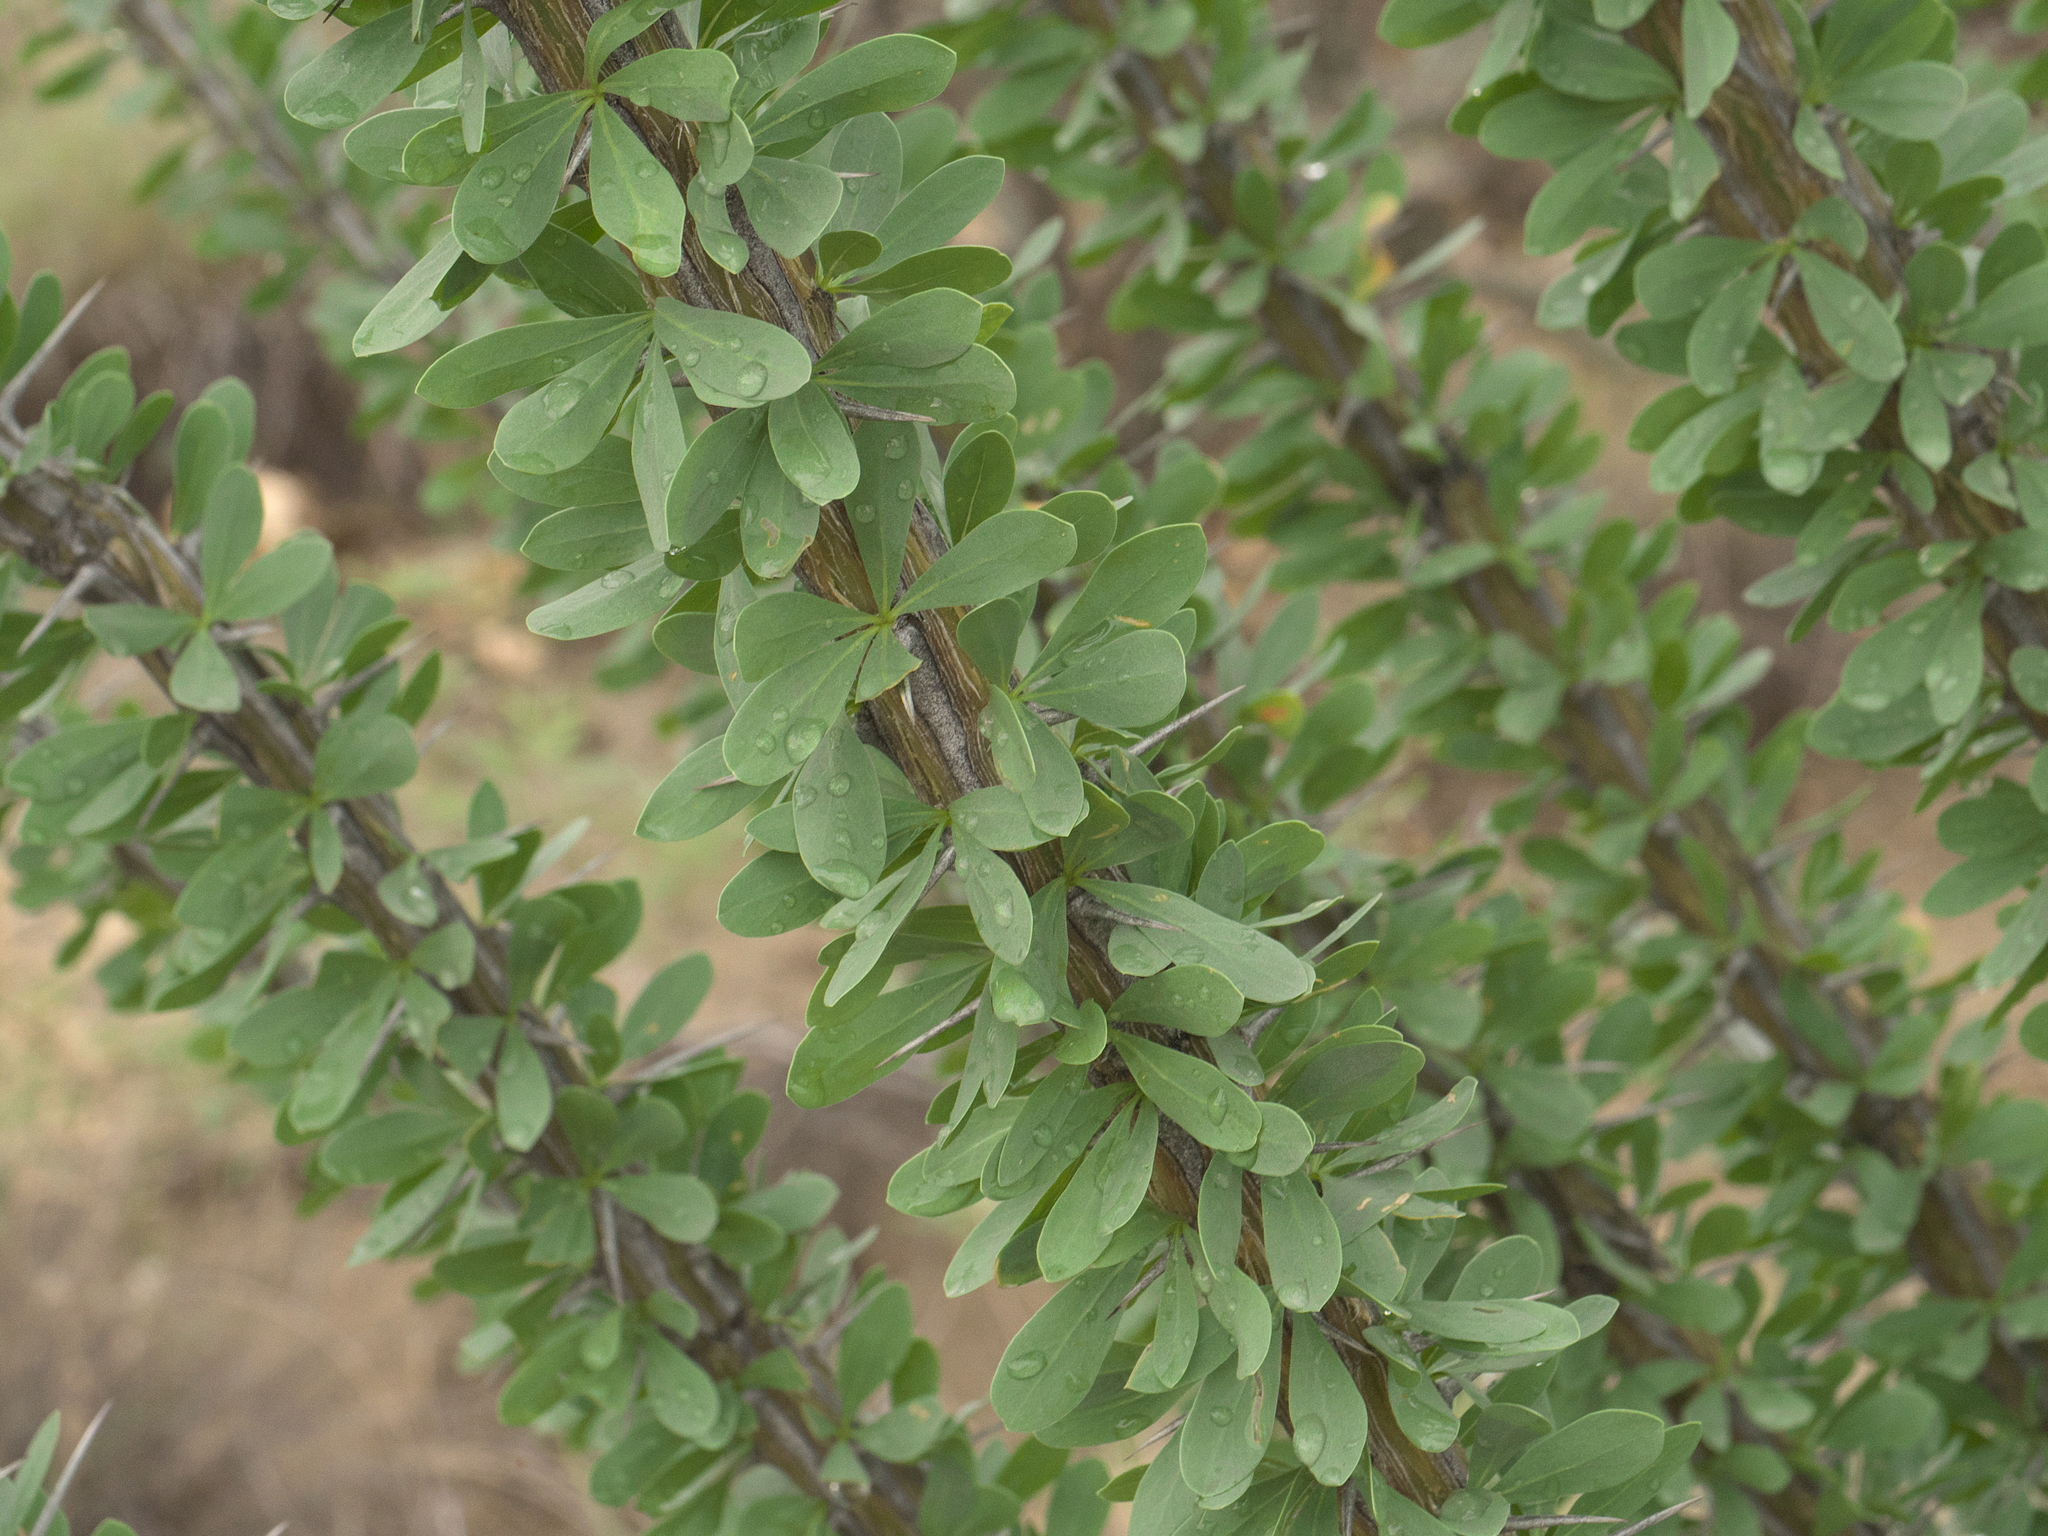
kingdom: Plantae
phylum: Tracheophyta
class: Magnoliopsida
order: Ericales
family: Fouquieriaceae
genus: Fouquieria
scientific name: Fouquieria splendens
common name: Vine-cactus
